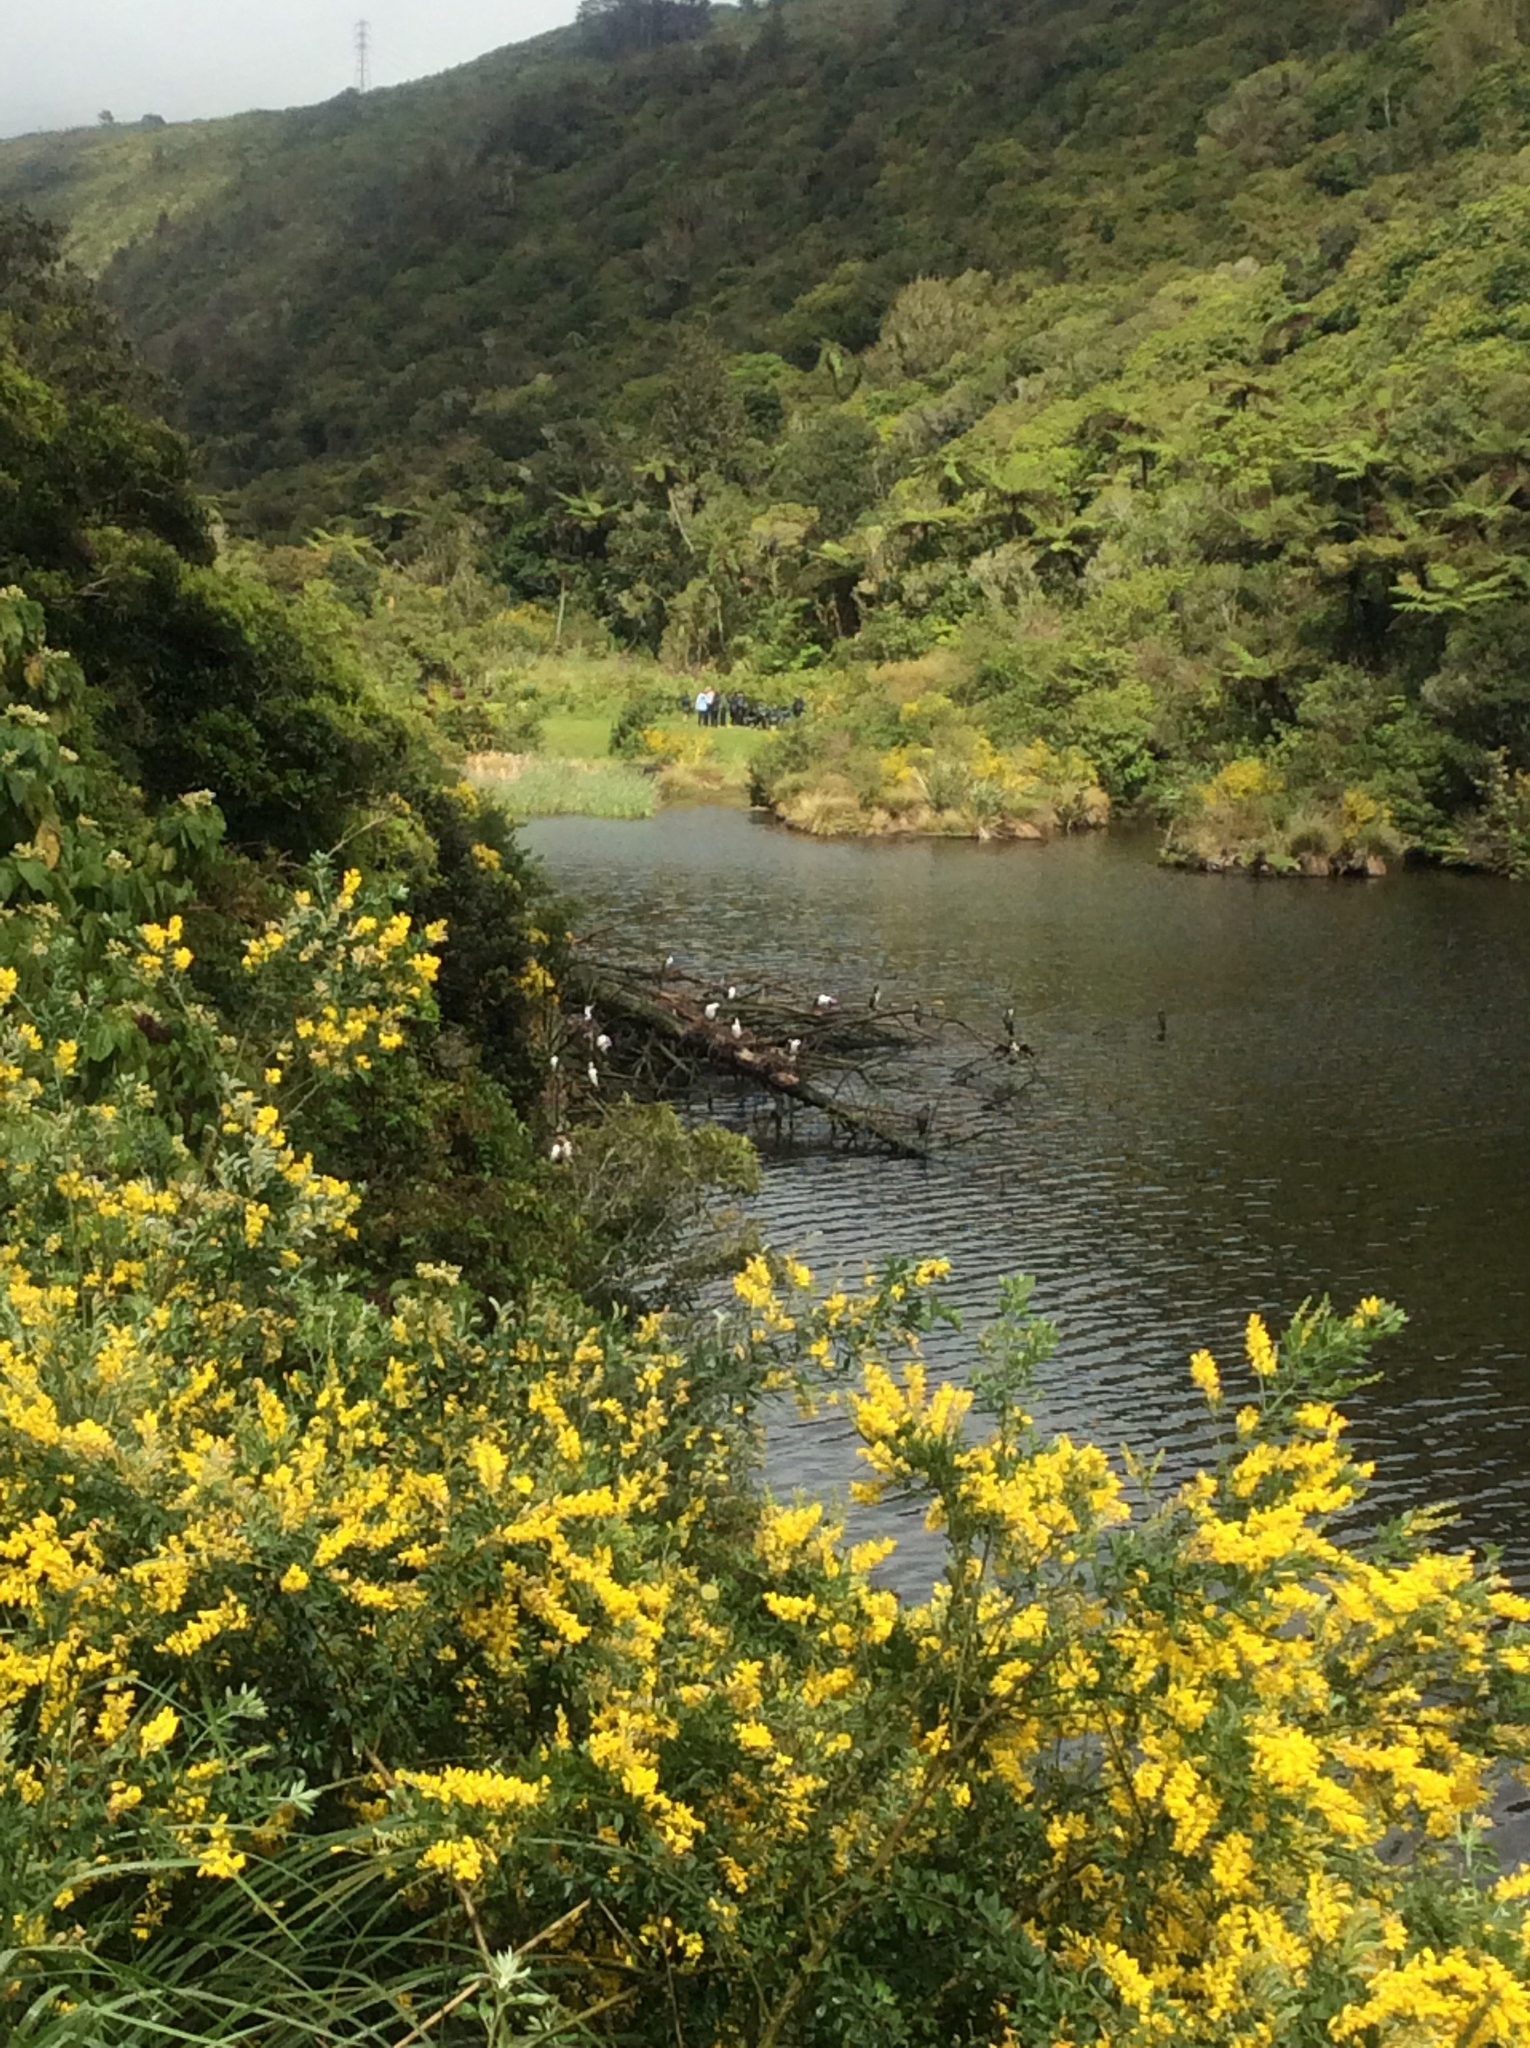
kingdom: Plantae
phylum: Tracheophyta
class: Magnoliopsida
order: Fabales
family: Fabaceae
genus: Genista
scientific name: Genista stenopetala
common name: Leafy broom
